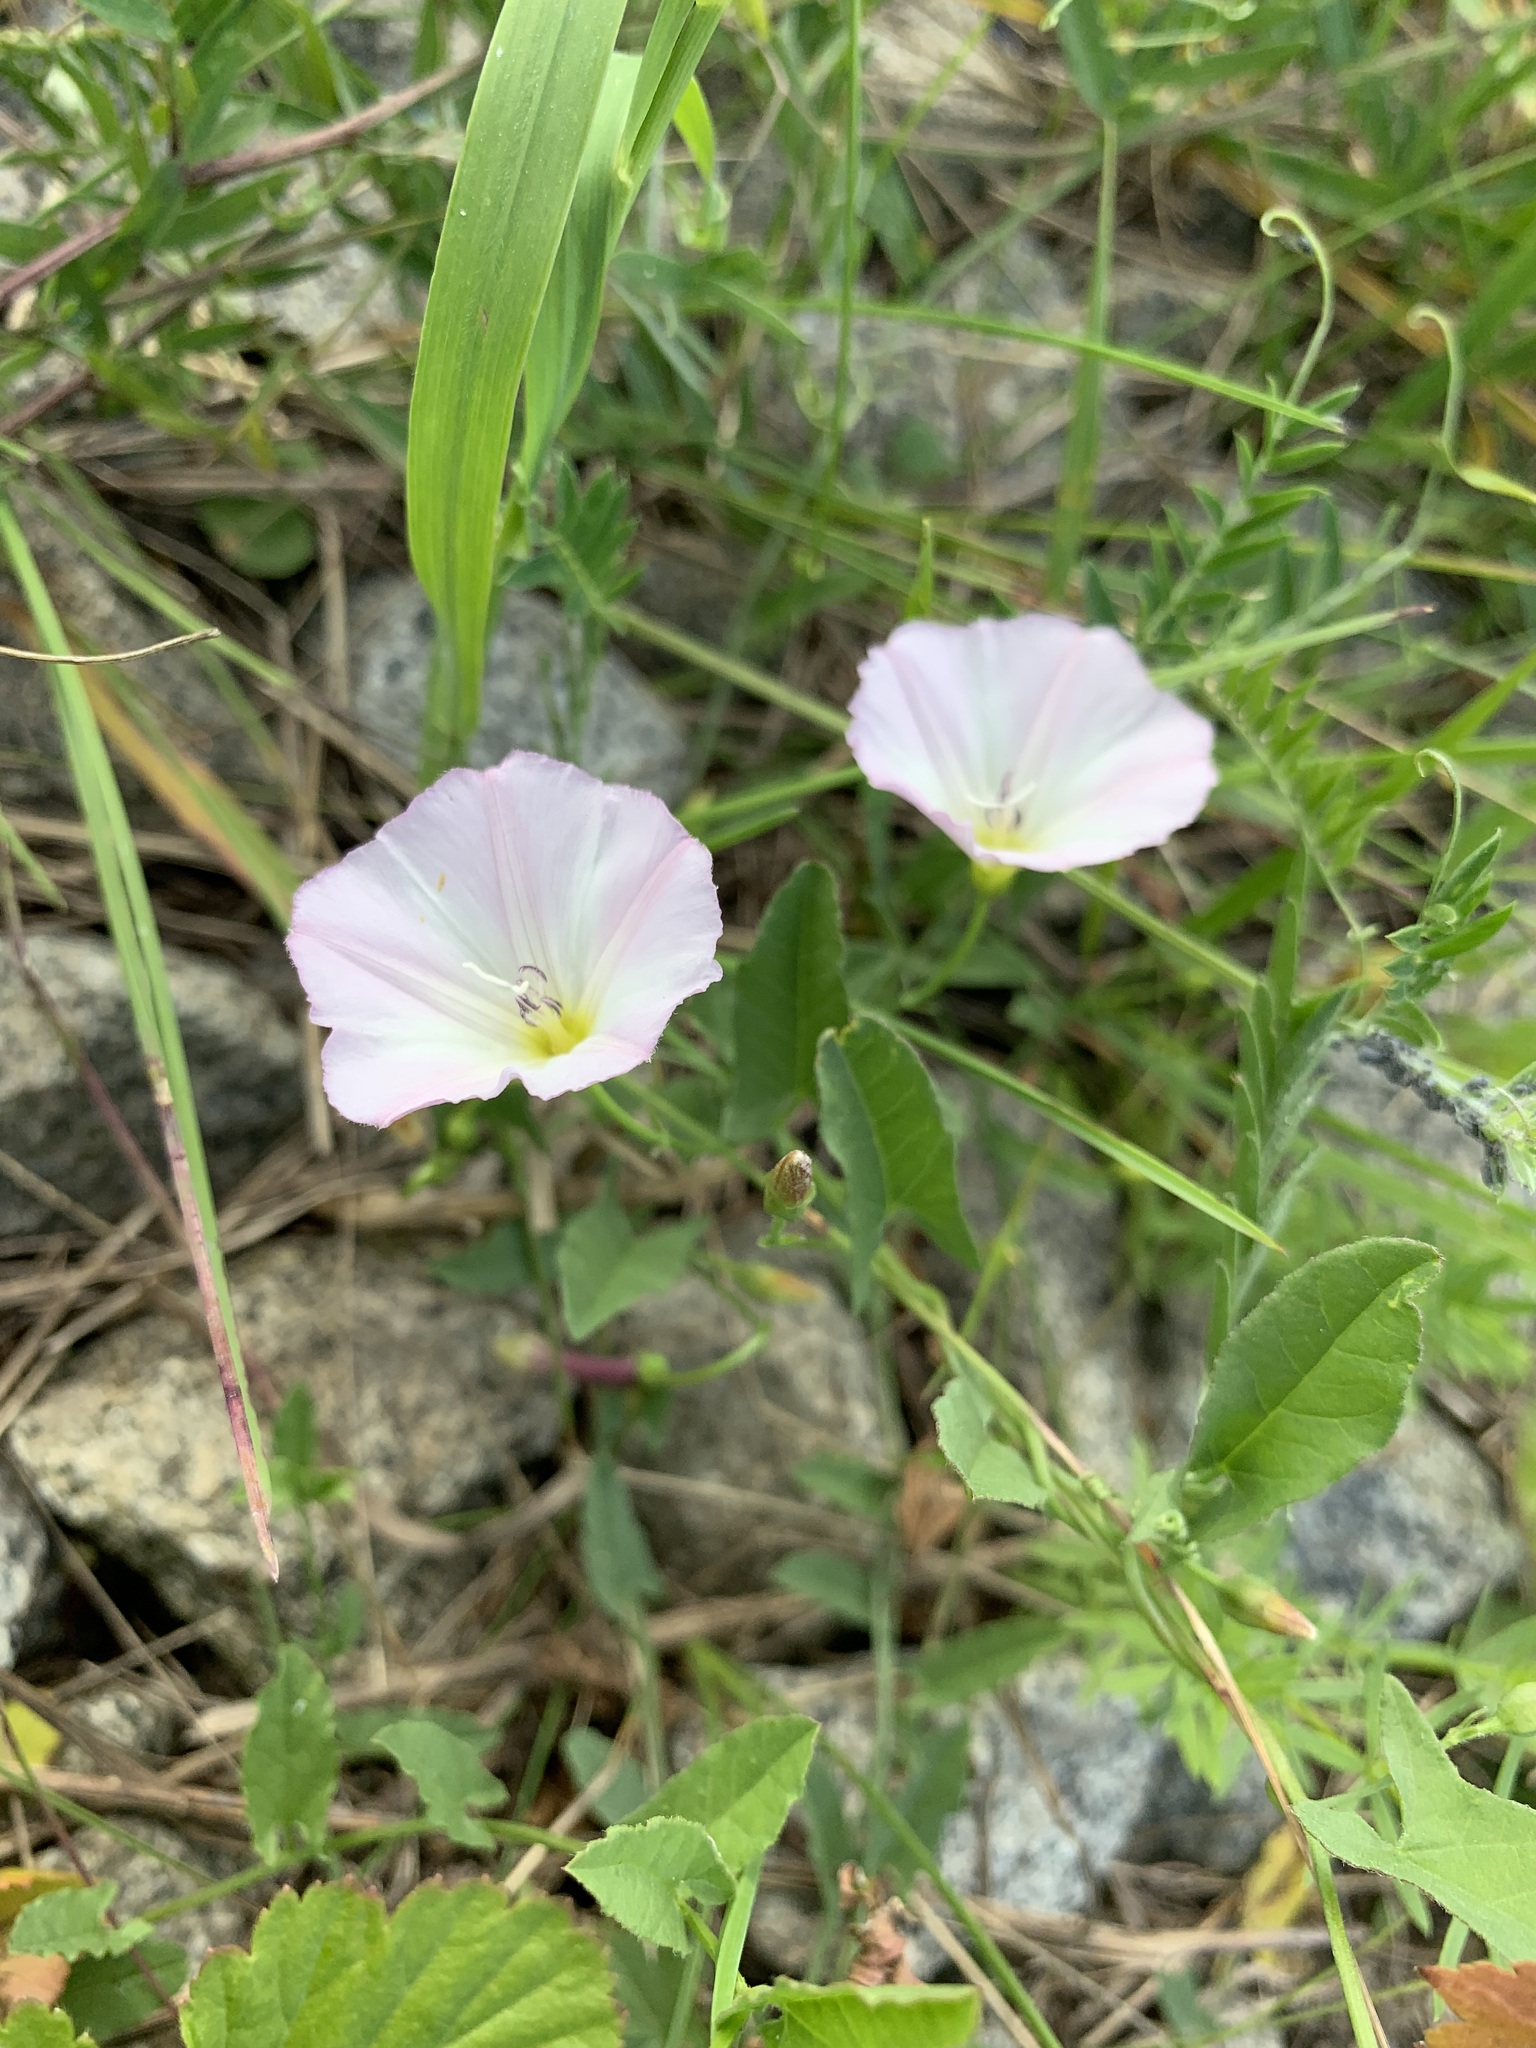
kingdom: Plantae
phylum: Tracheophyta
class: Magnoliopsida
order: Solanales
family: Convolvulaceae
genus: Convolvulus
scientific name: Convolvulus arvensis
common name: Field bindweed
